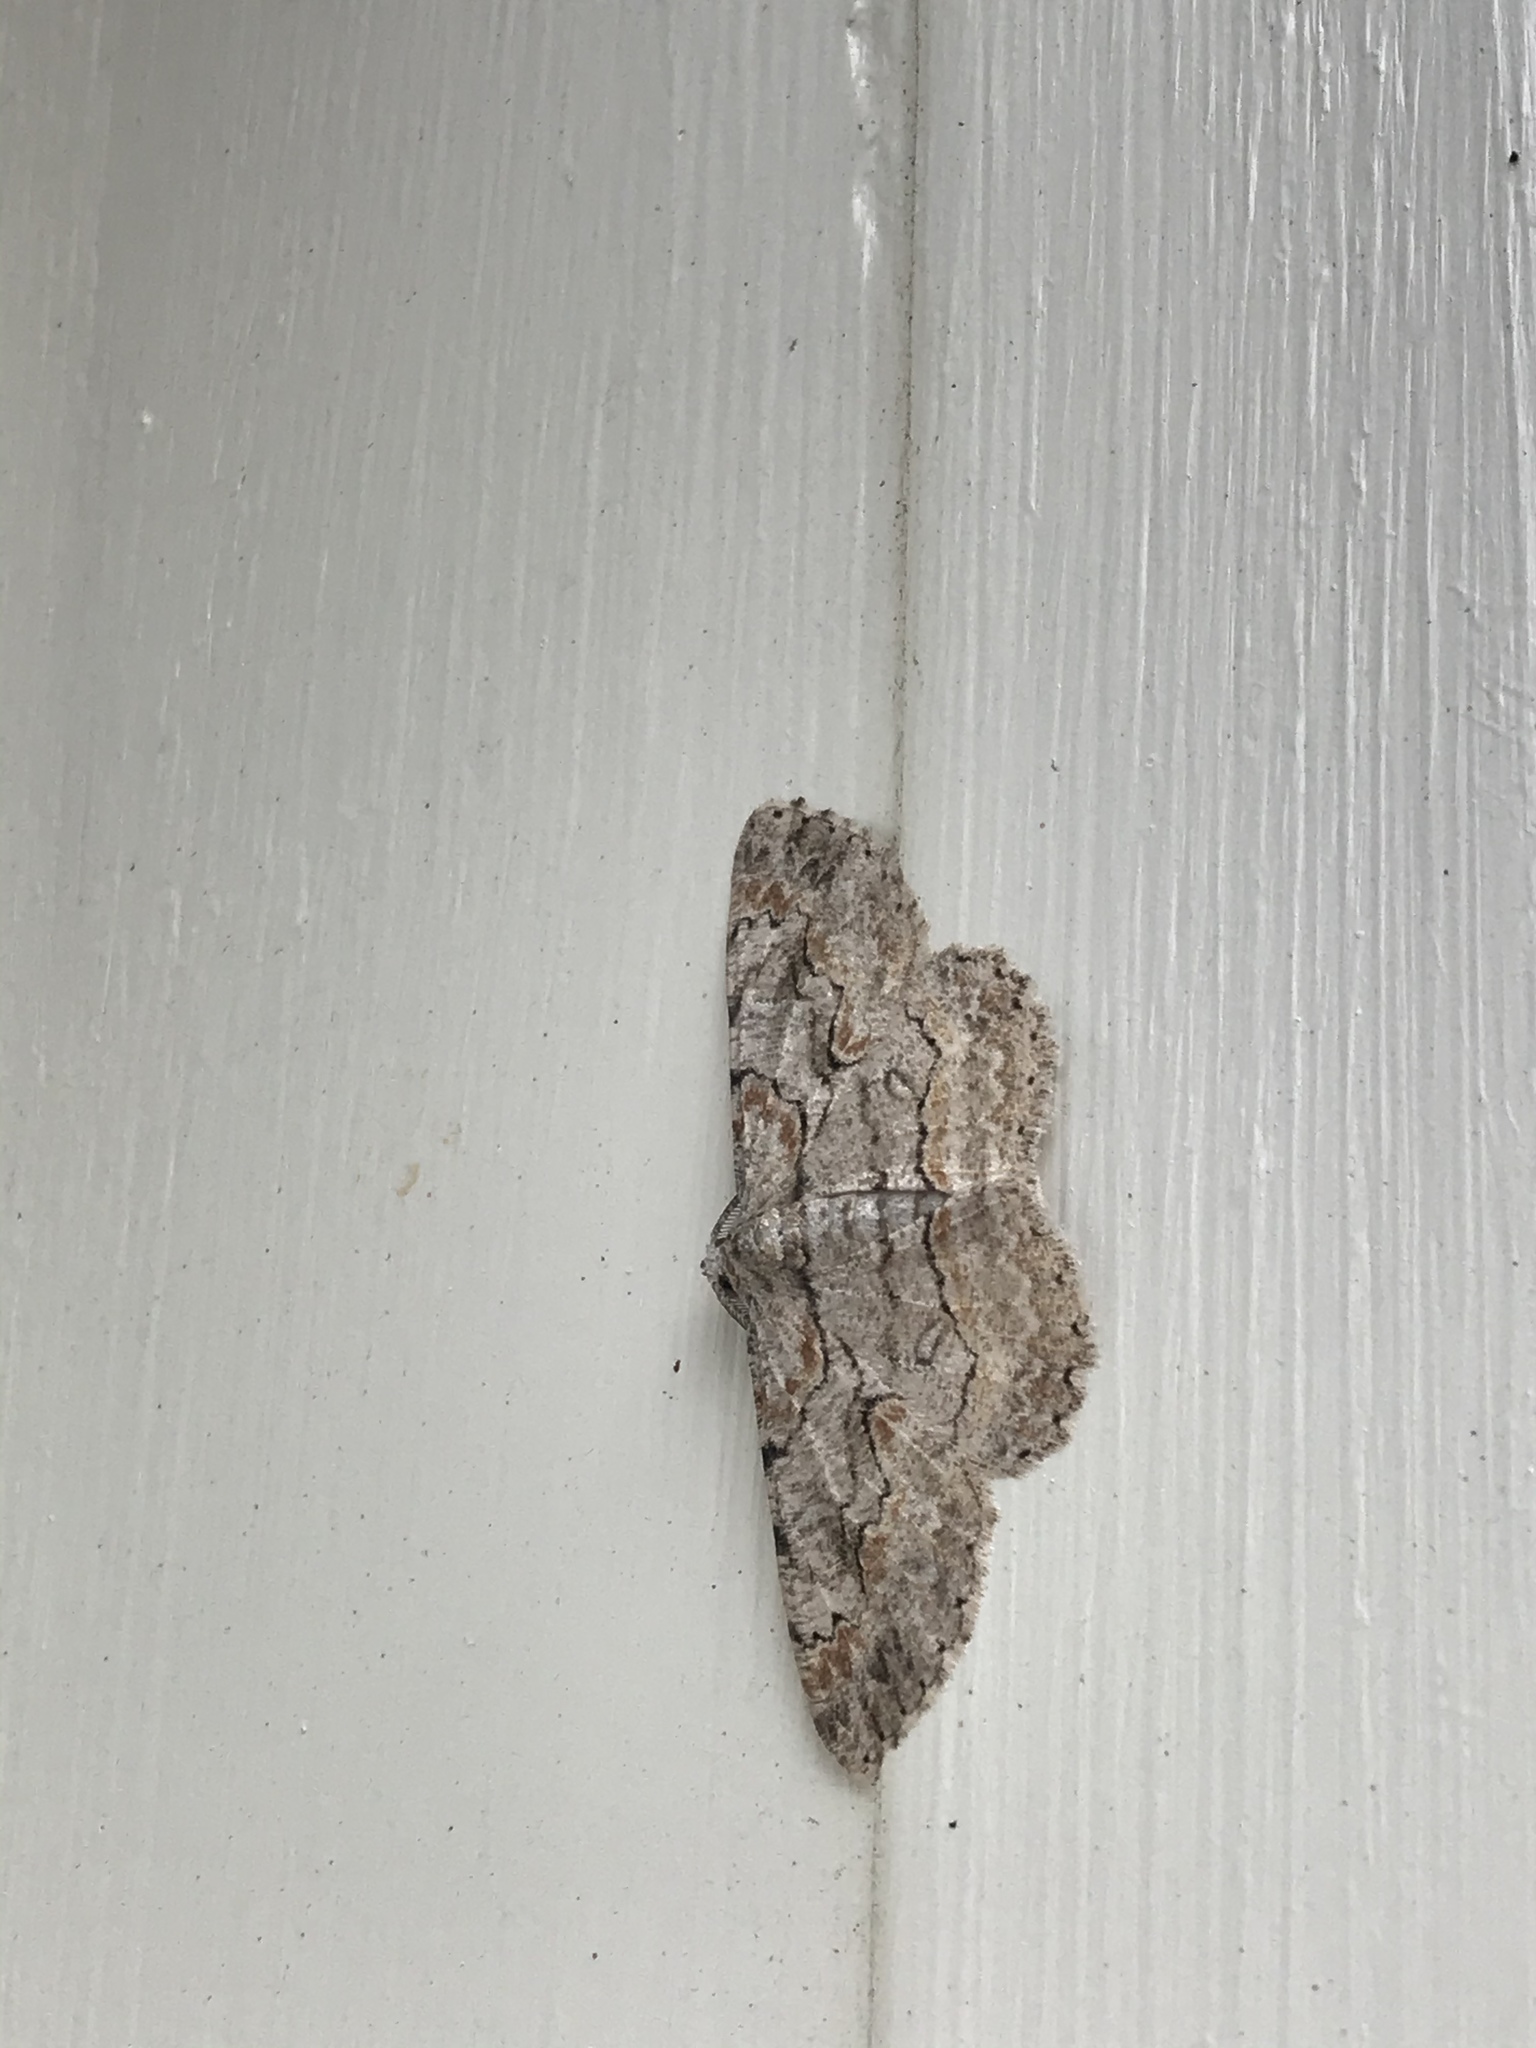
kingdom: Animalia
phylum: Arthropoda
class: Insecta
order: Lepidoptera
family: Geometridae
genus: Iridopsis
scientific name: Iridopsis defectaria
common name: Brown-shaded gray
